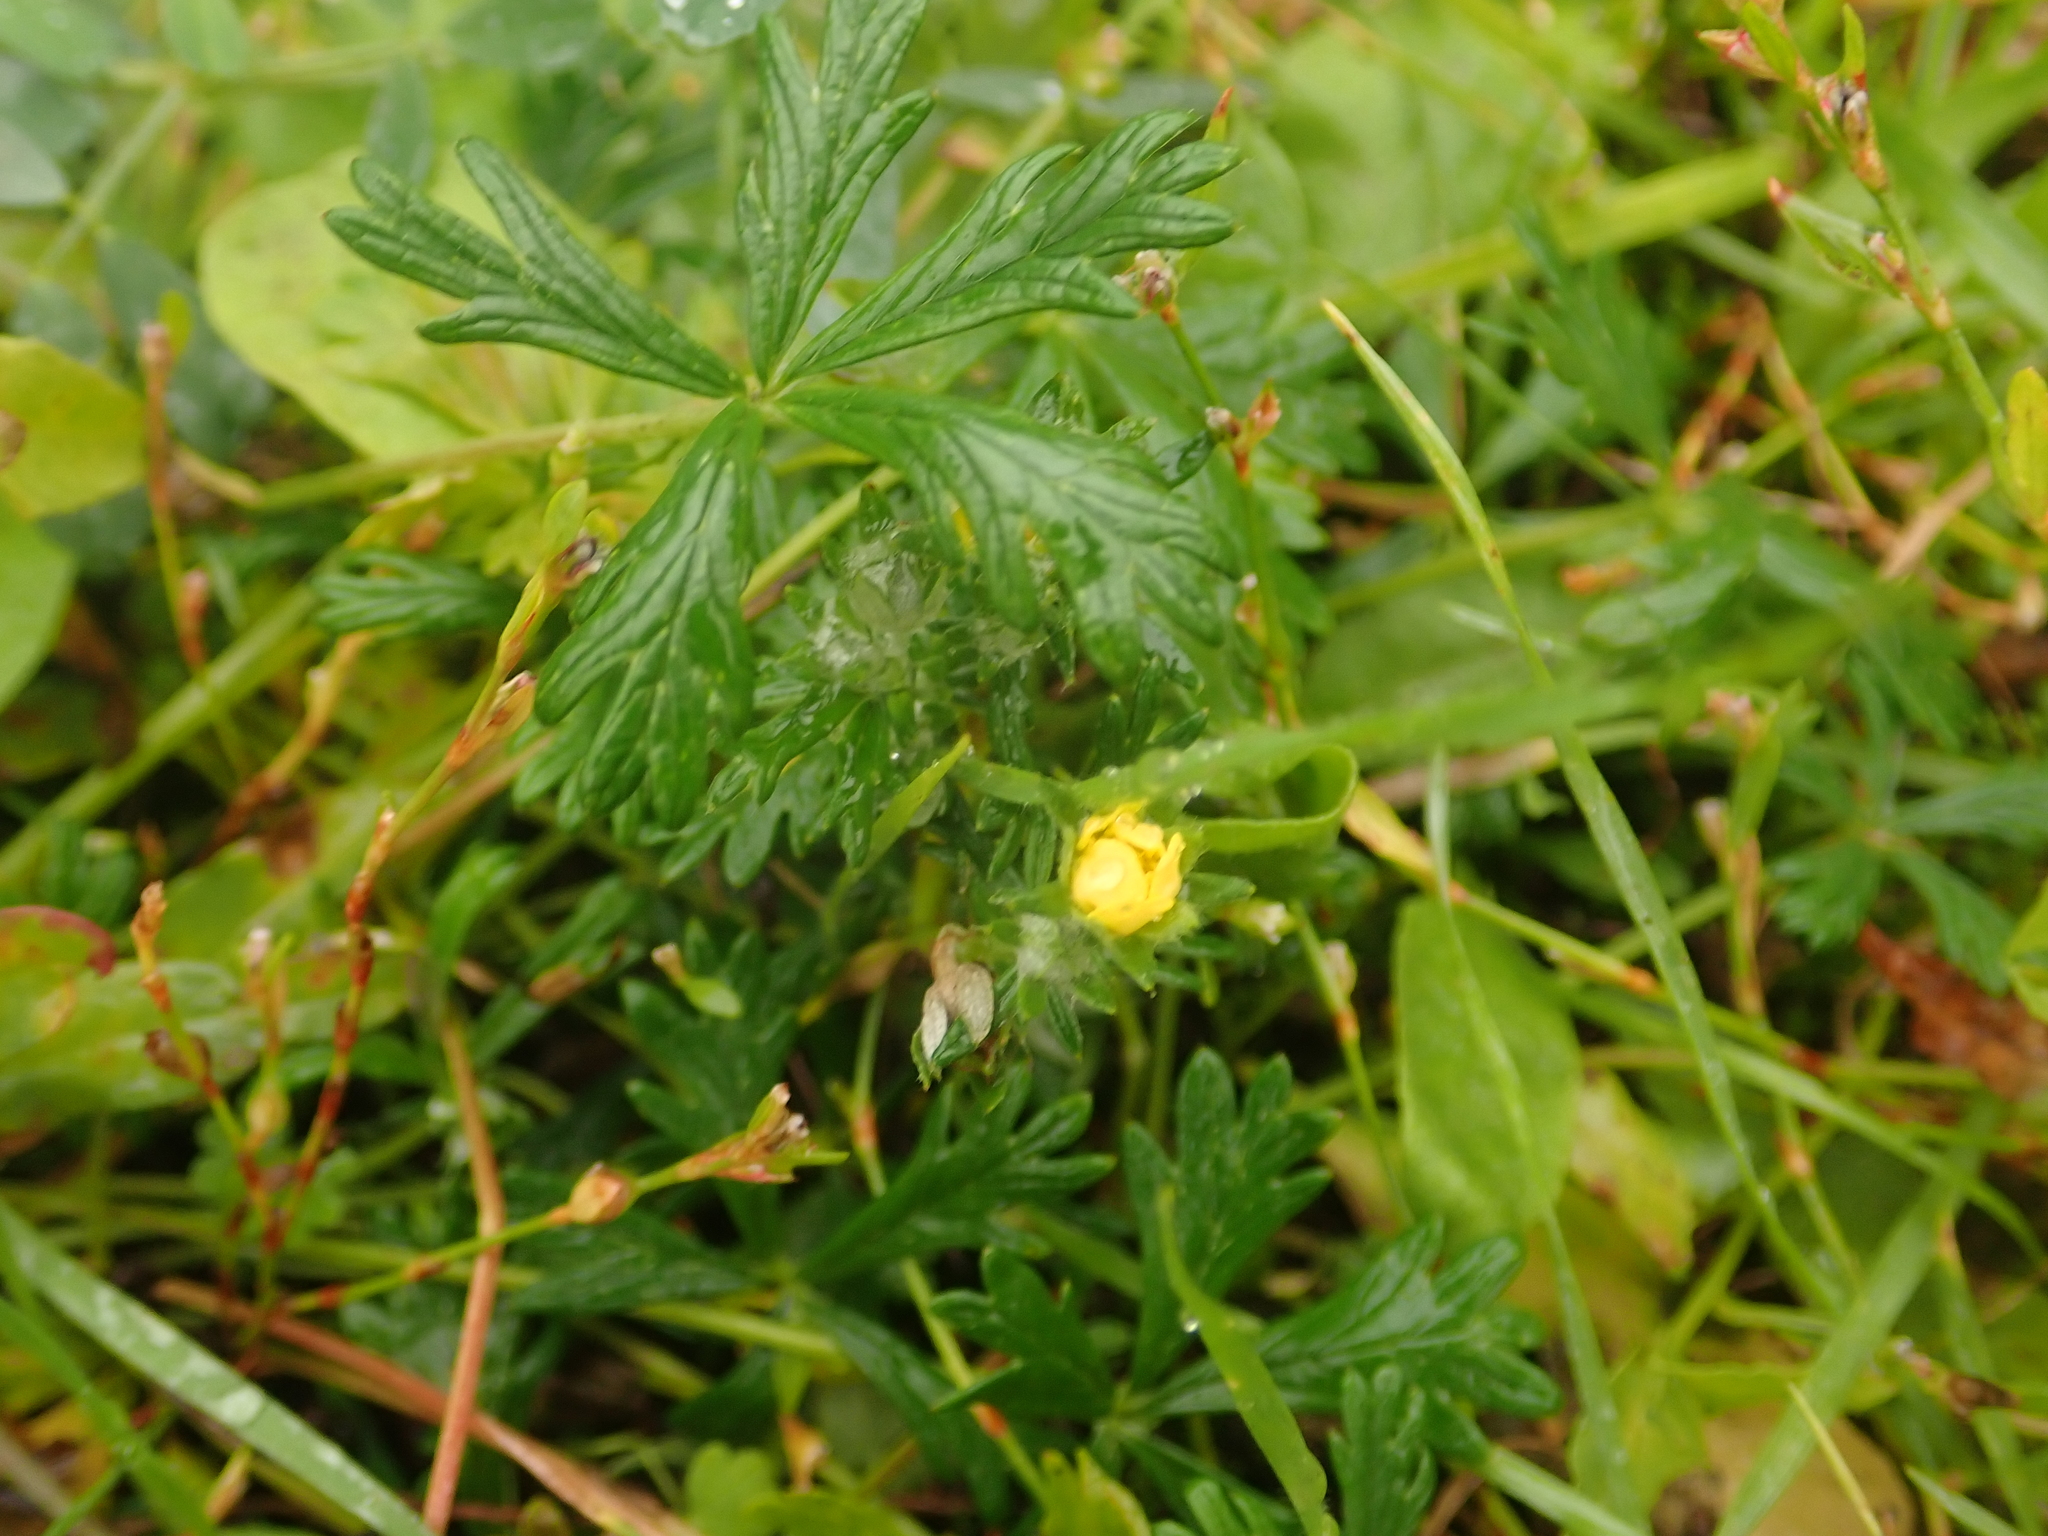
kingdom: Plantae
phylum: Tracheophyta
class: Magnoliopsida
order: Rosales
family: Rosaceae
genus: Potentilla
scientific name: Potentilla argentea
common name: Hoary cinquefoil
